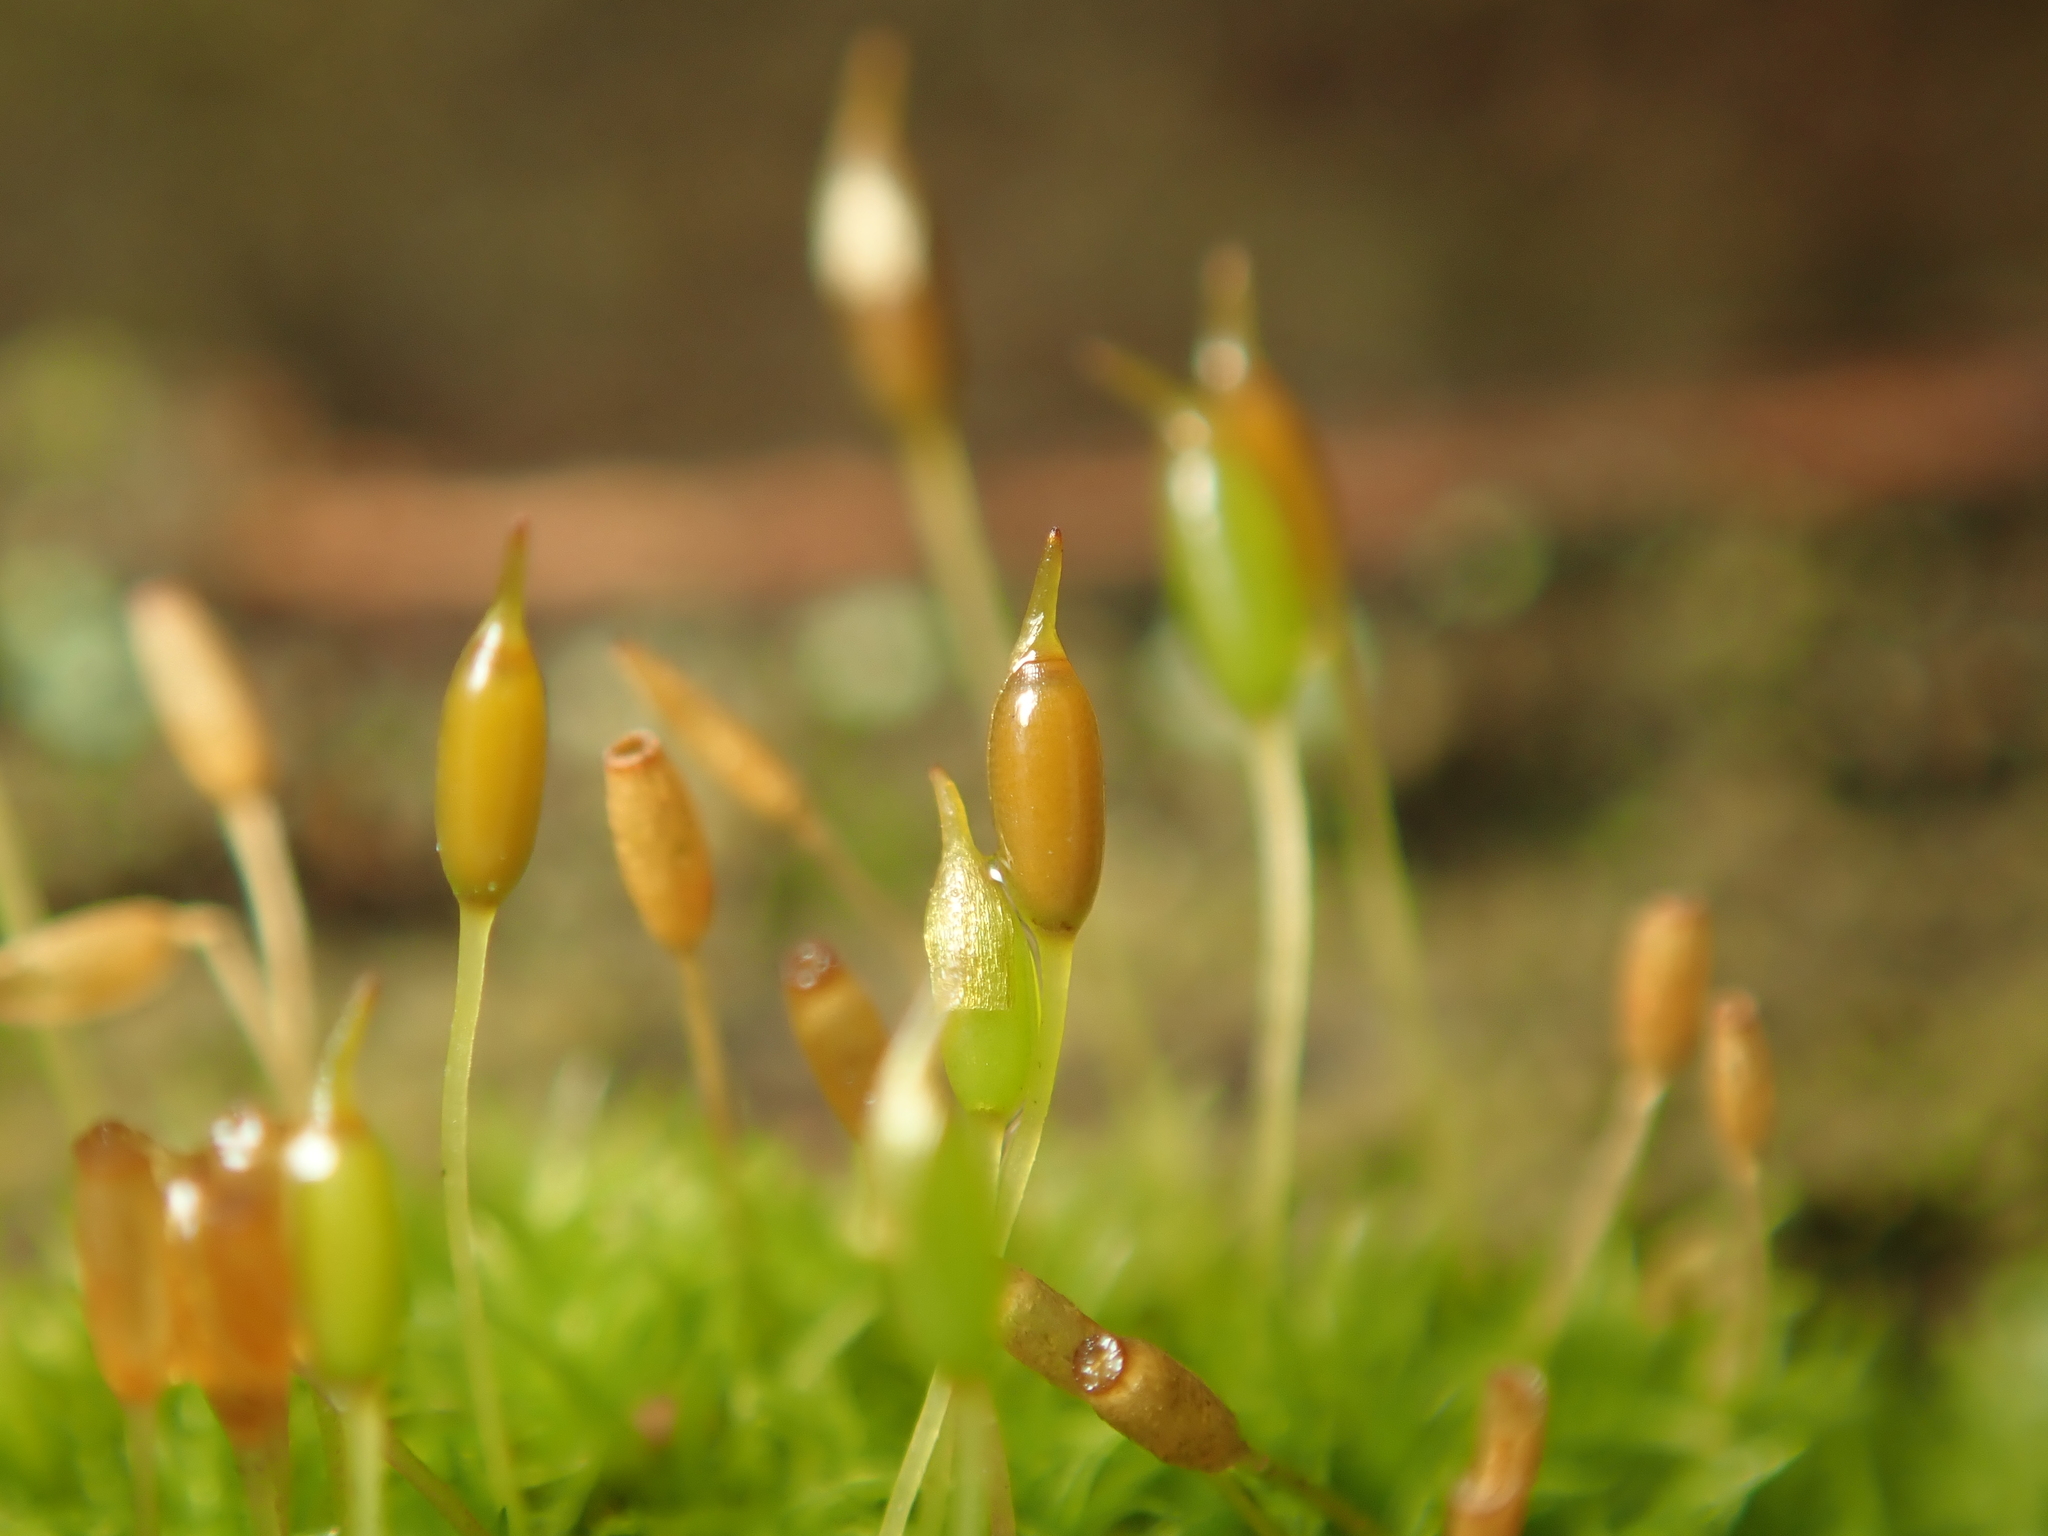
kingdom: Plantae
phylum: Bryophyta
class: Bryopsida
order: Dicranales
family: Rhabdoweisiaceae
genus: Dicranoweisia
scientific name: Dicranoweisia cirrata
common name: Common pincushion
